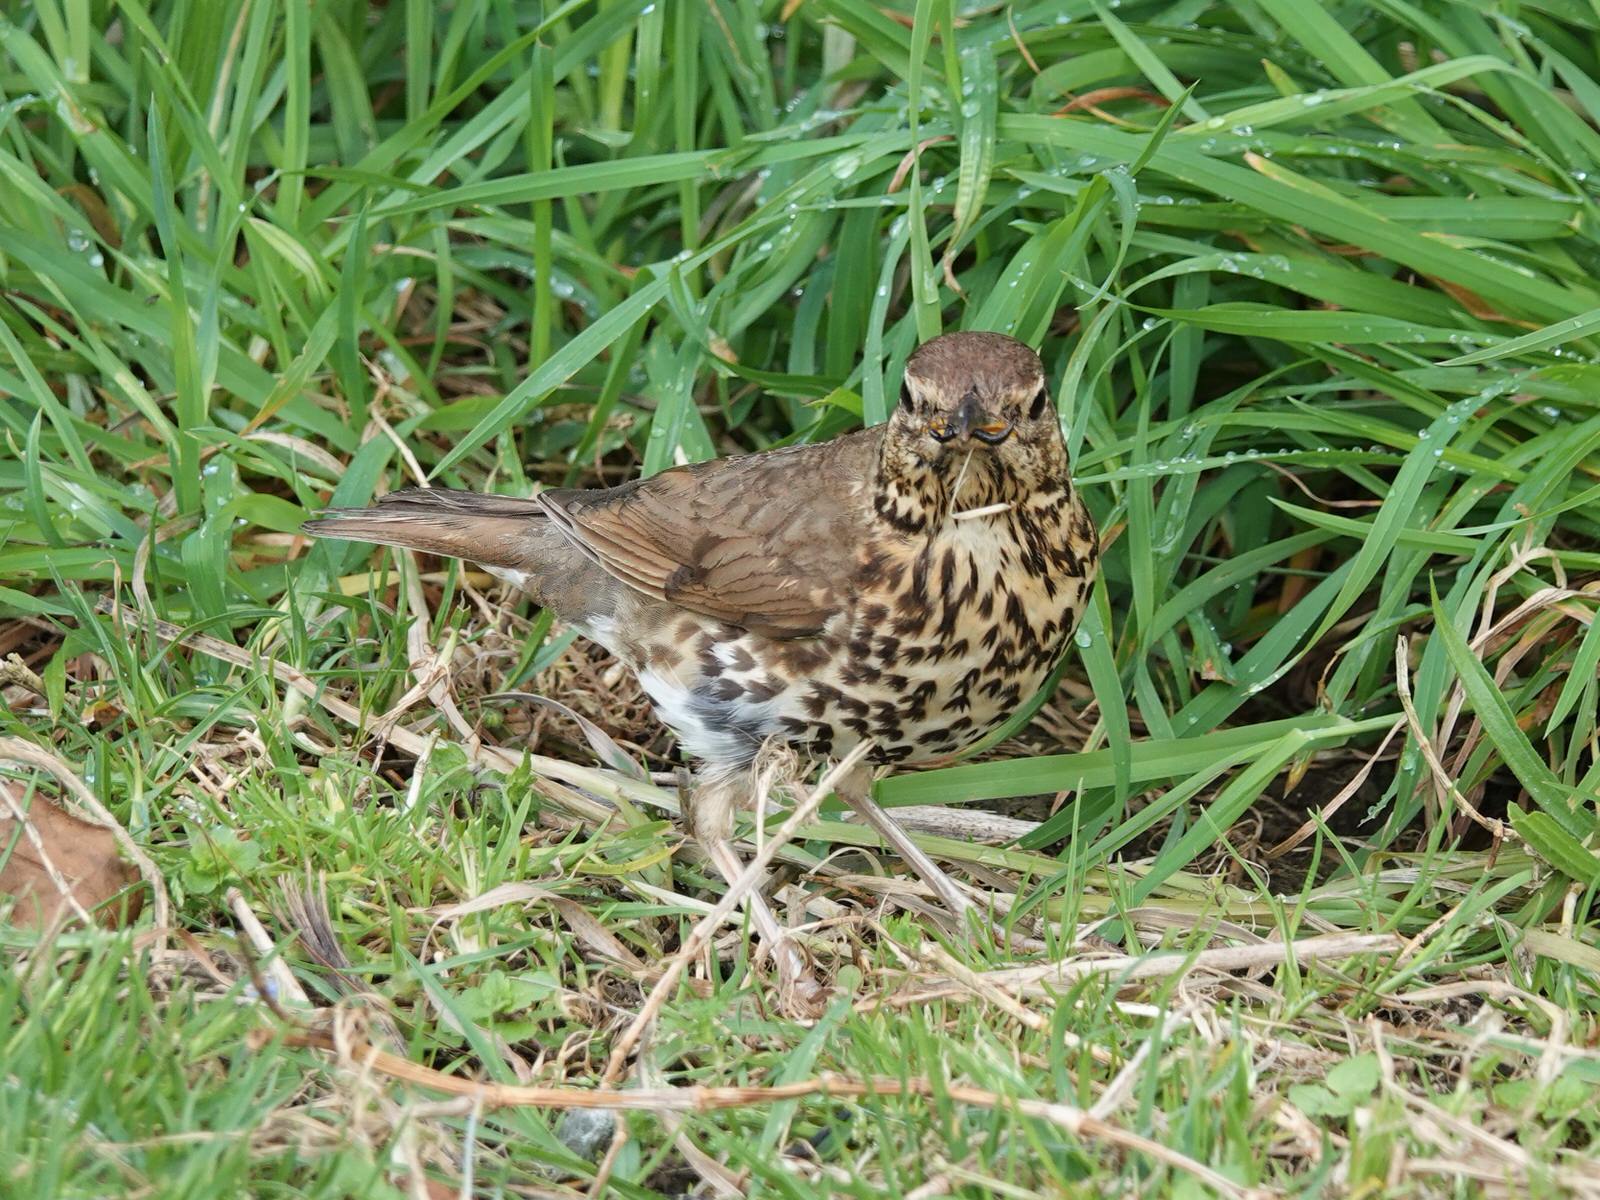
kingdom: Animalia
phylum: Chordata
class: Aves
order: Passeriformes
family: Turdidae
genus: Turdus
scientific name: Turdus philomelos
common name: Song thrush
